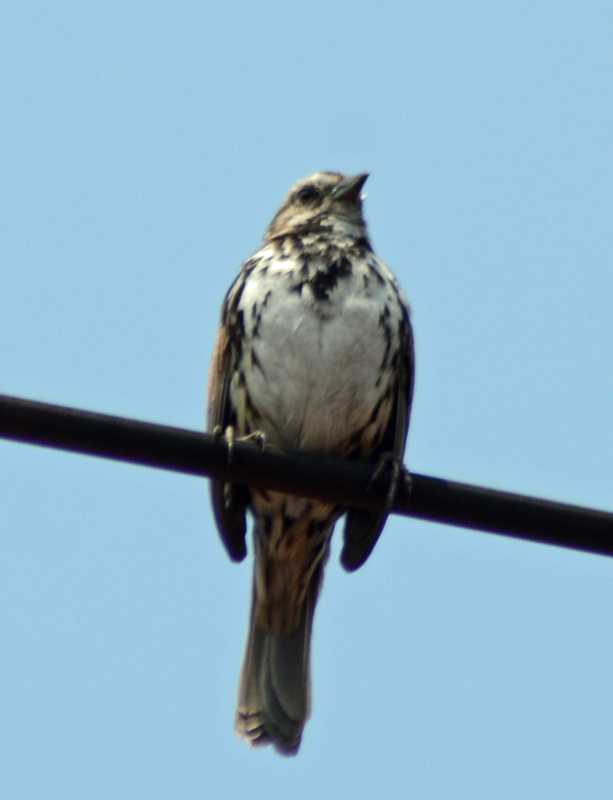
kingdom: Animalia
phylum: Chordata
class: Aves
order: Passeriformes
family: Passerellidae
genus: Melospiza
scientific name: Melospiza melodia
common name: Song sparrow
